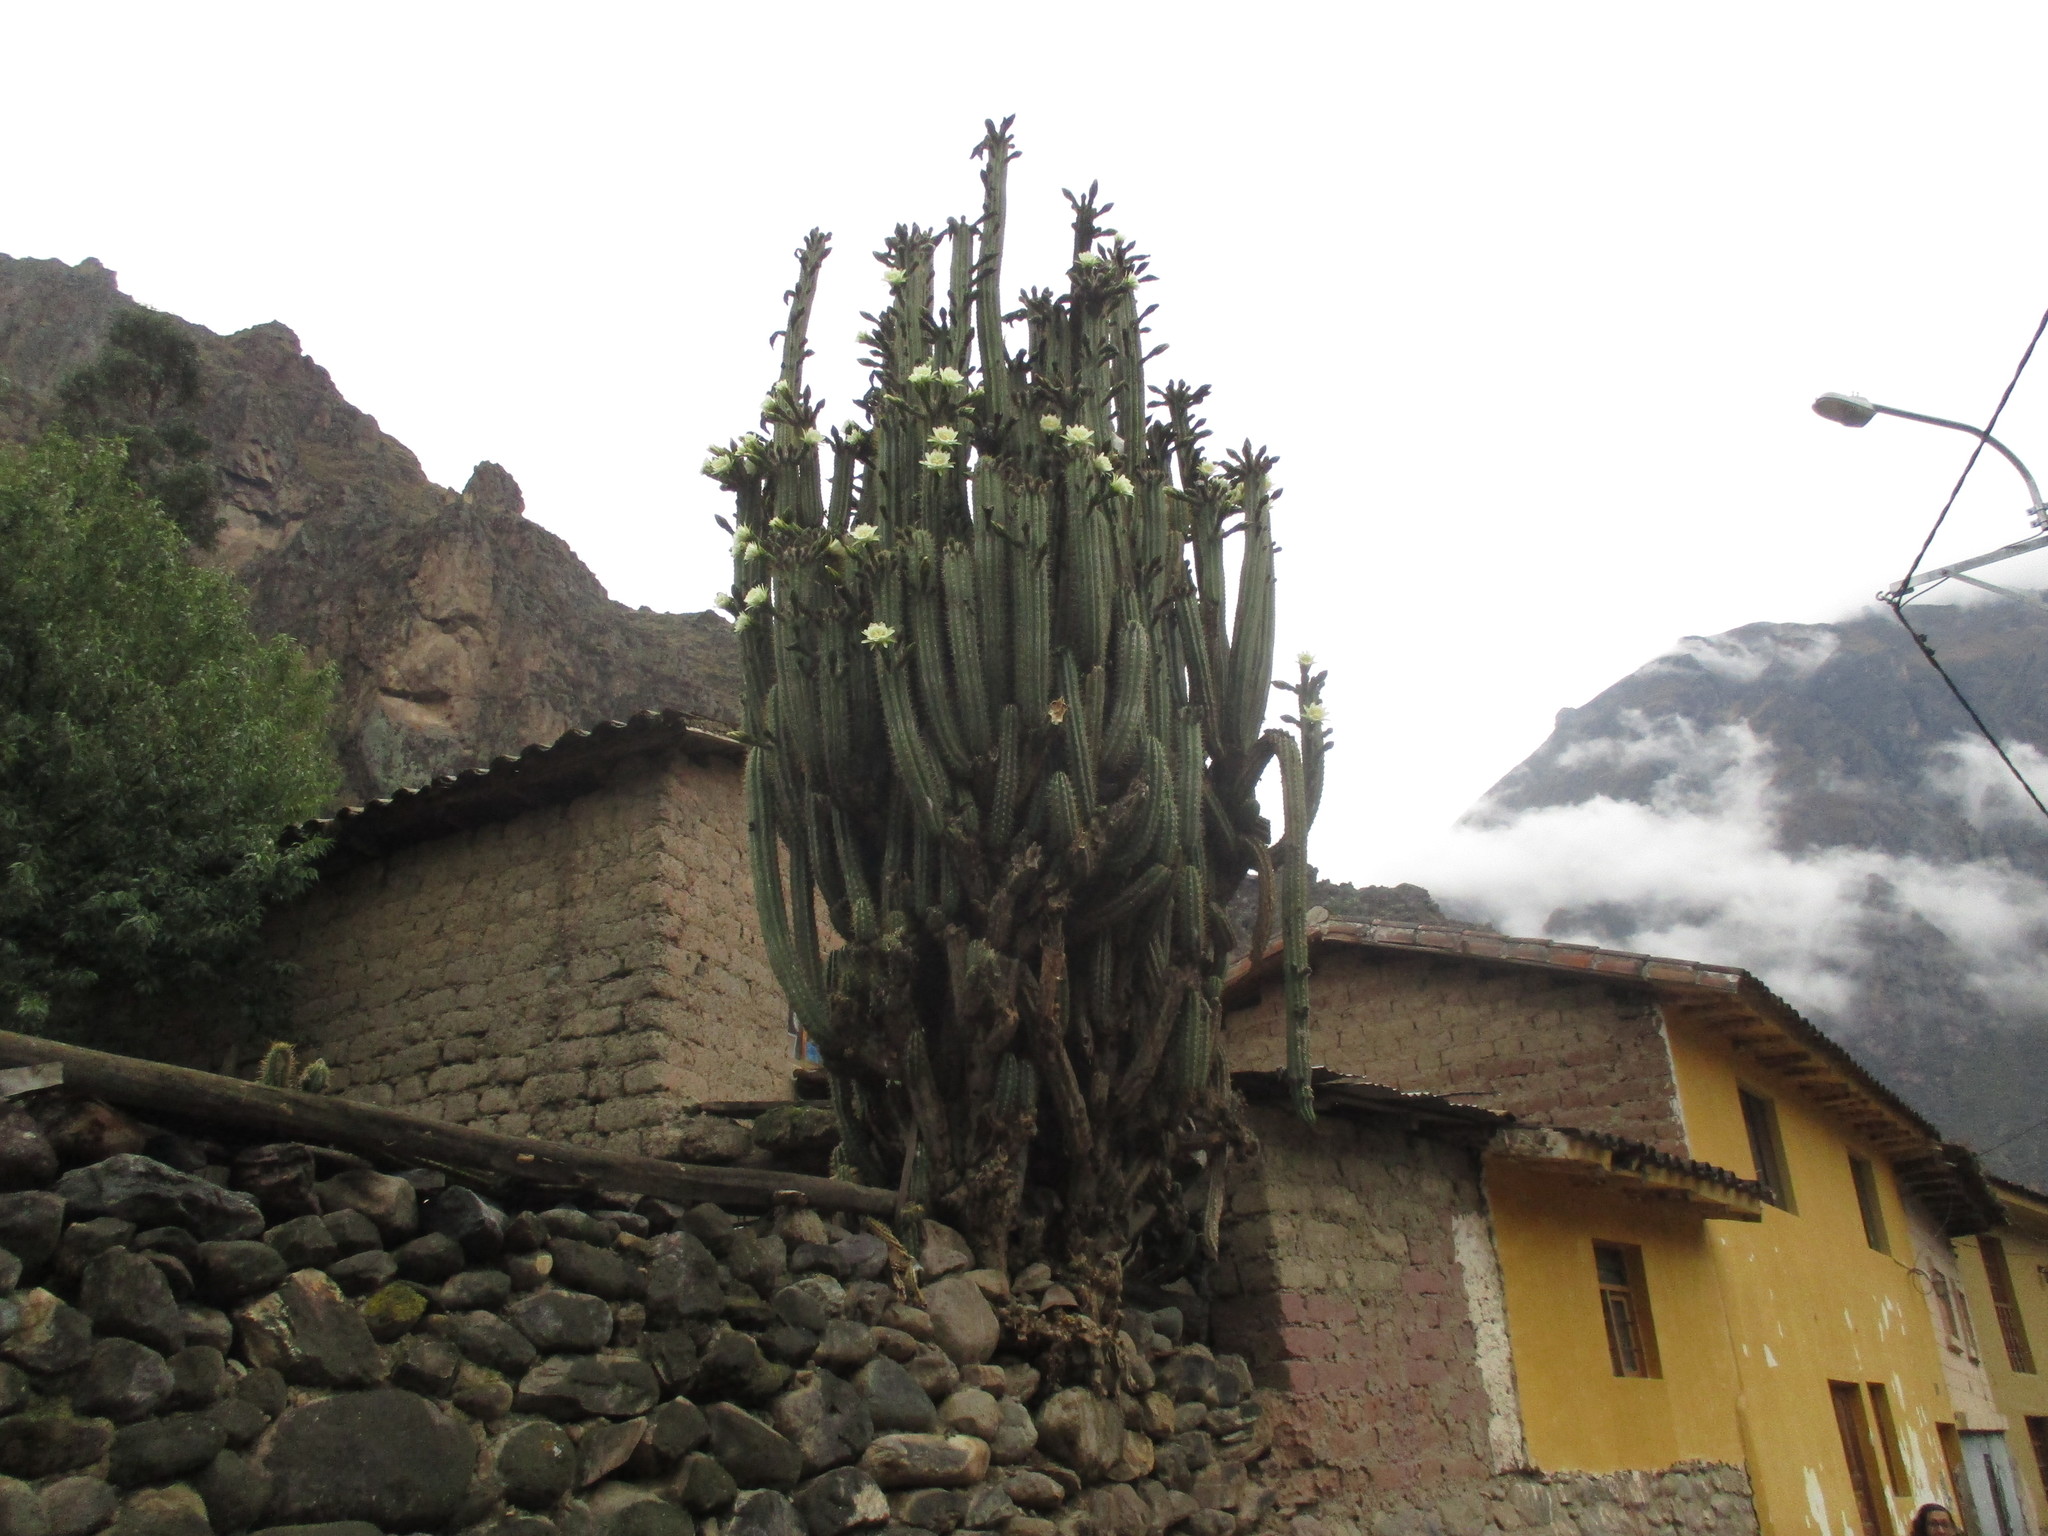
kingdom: Plantae
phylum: Tracheophyta
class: Magnoliopsida
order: Caryophyllales
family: Cactaceae
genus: Trichocereus
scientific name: Trichocereus cuzcoensis
